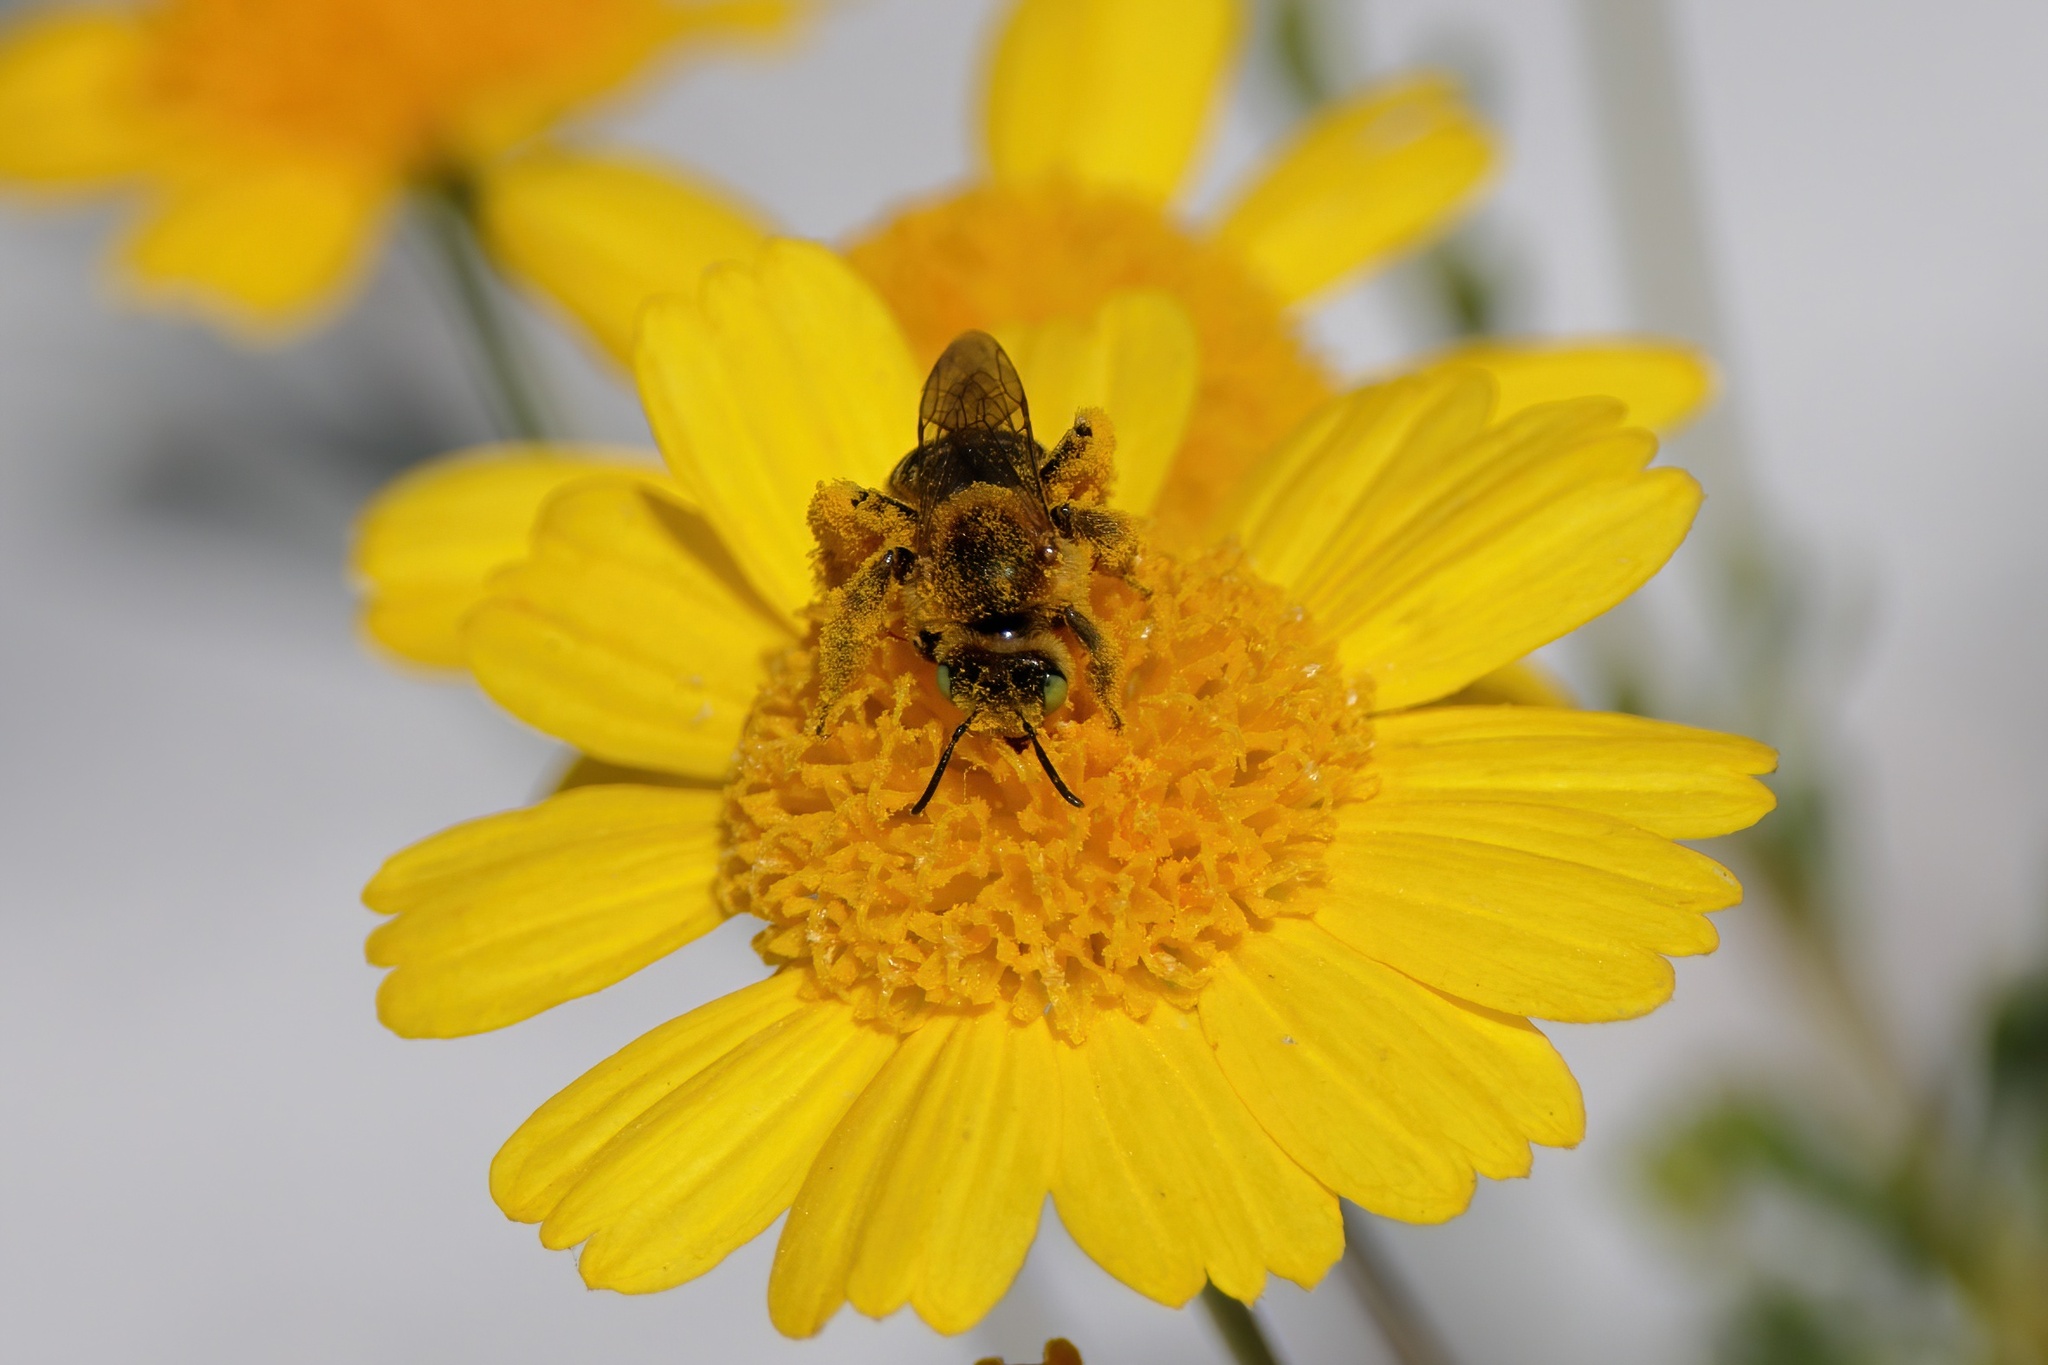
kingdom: Animalia
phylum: Arthropoda
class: Insecta
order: Hymenoptera
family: Melittidae
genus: Hesperapis
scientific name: Hesperapis oraria
